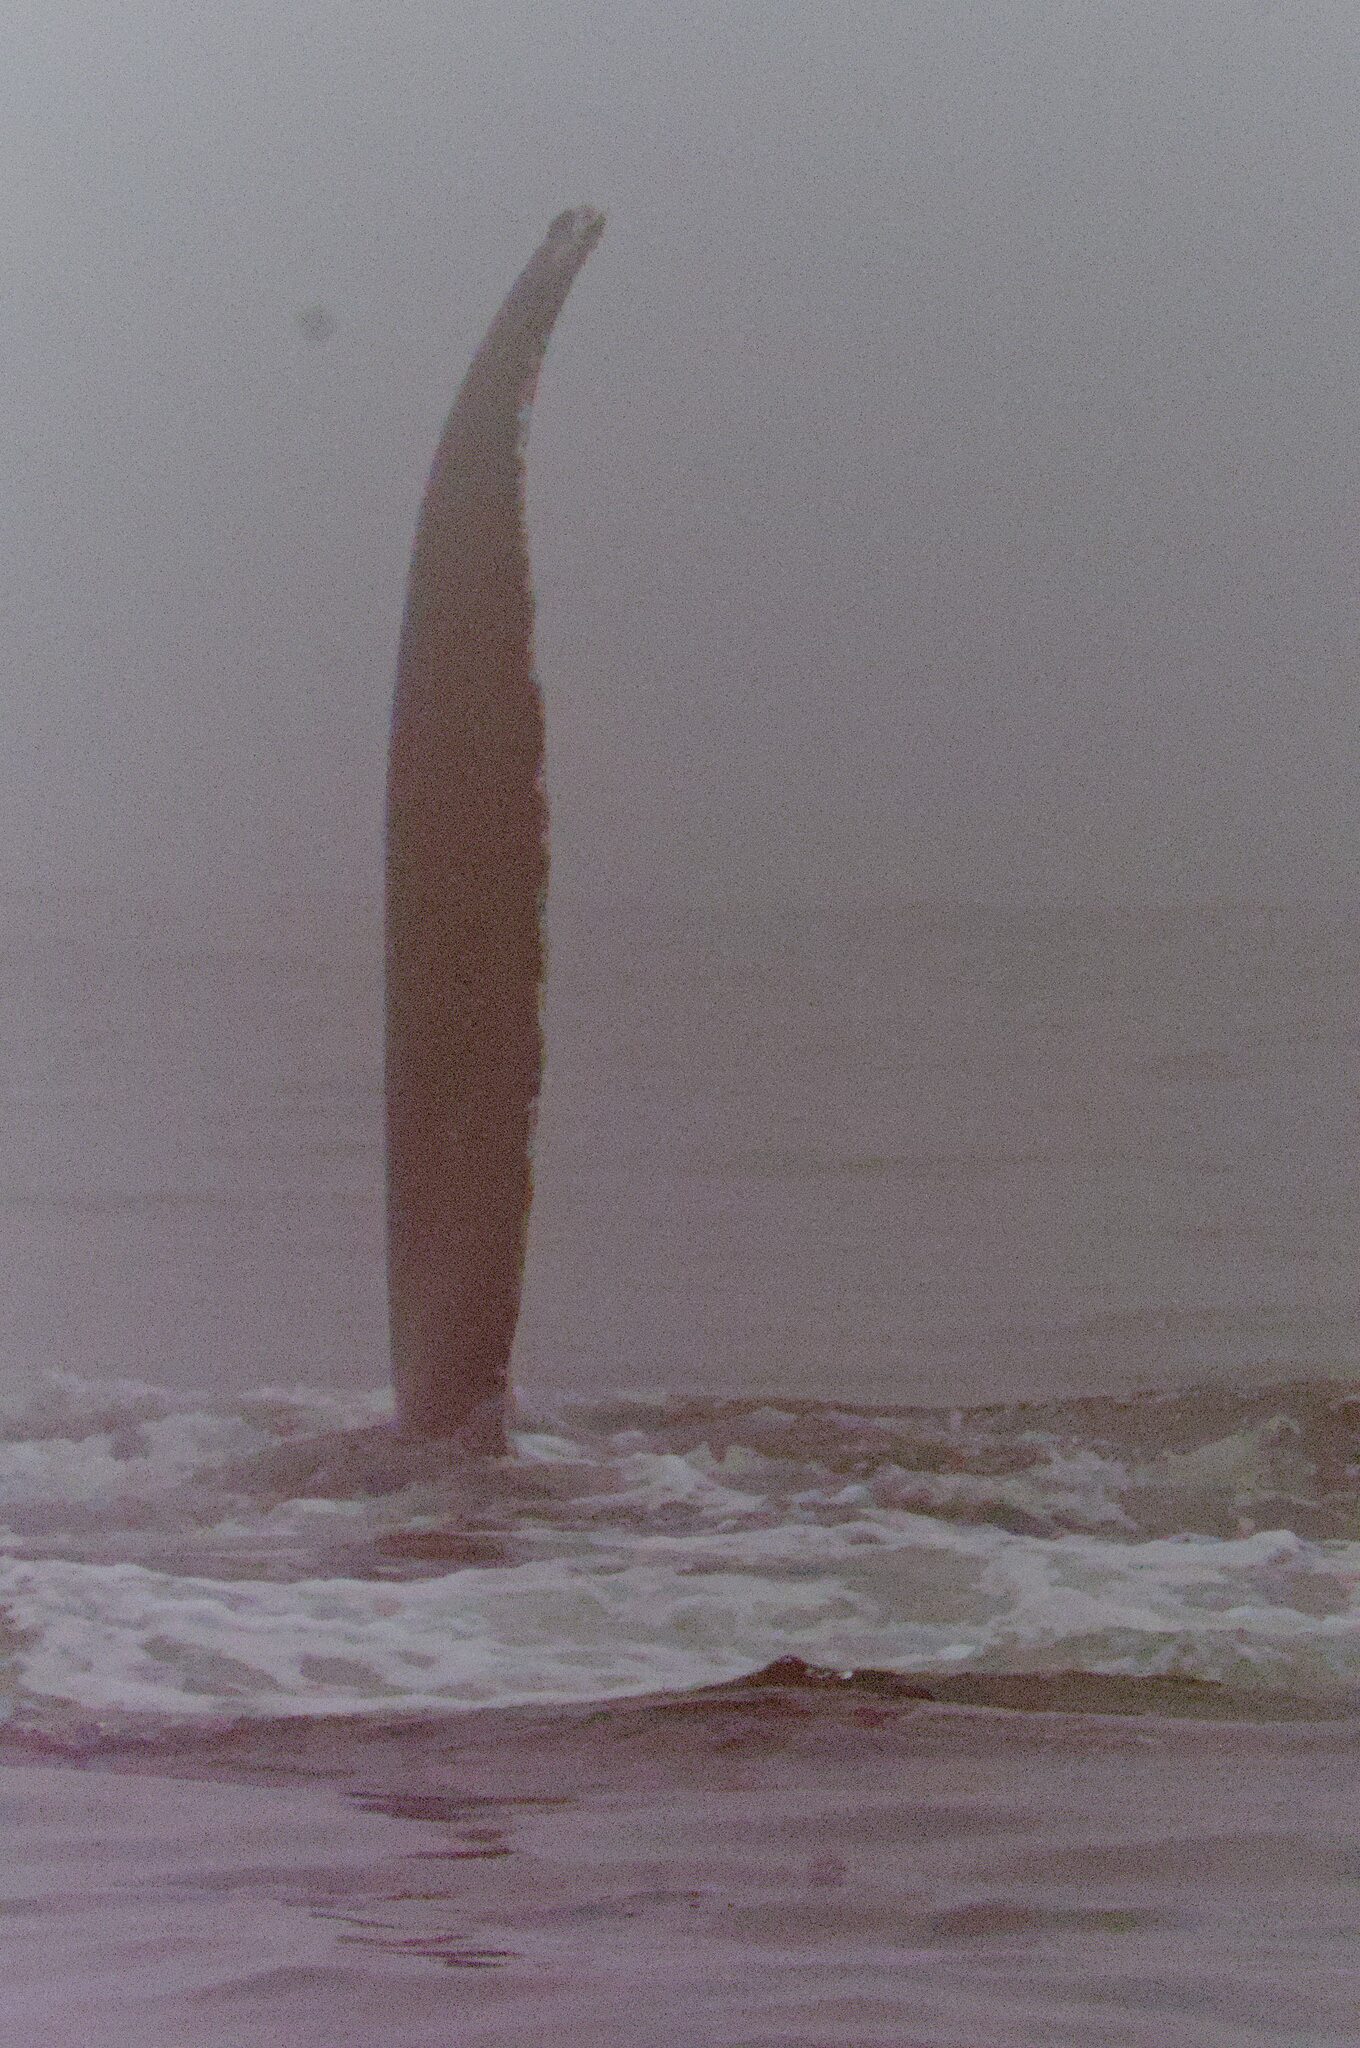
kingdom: Animalia
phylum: Chordata
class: Mammalia
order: Cetacea
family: Balaenopteridae
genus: Megaptera
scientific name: Megaptera novaeangliae
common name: Humpback whale
